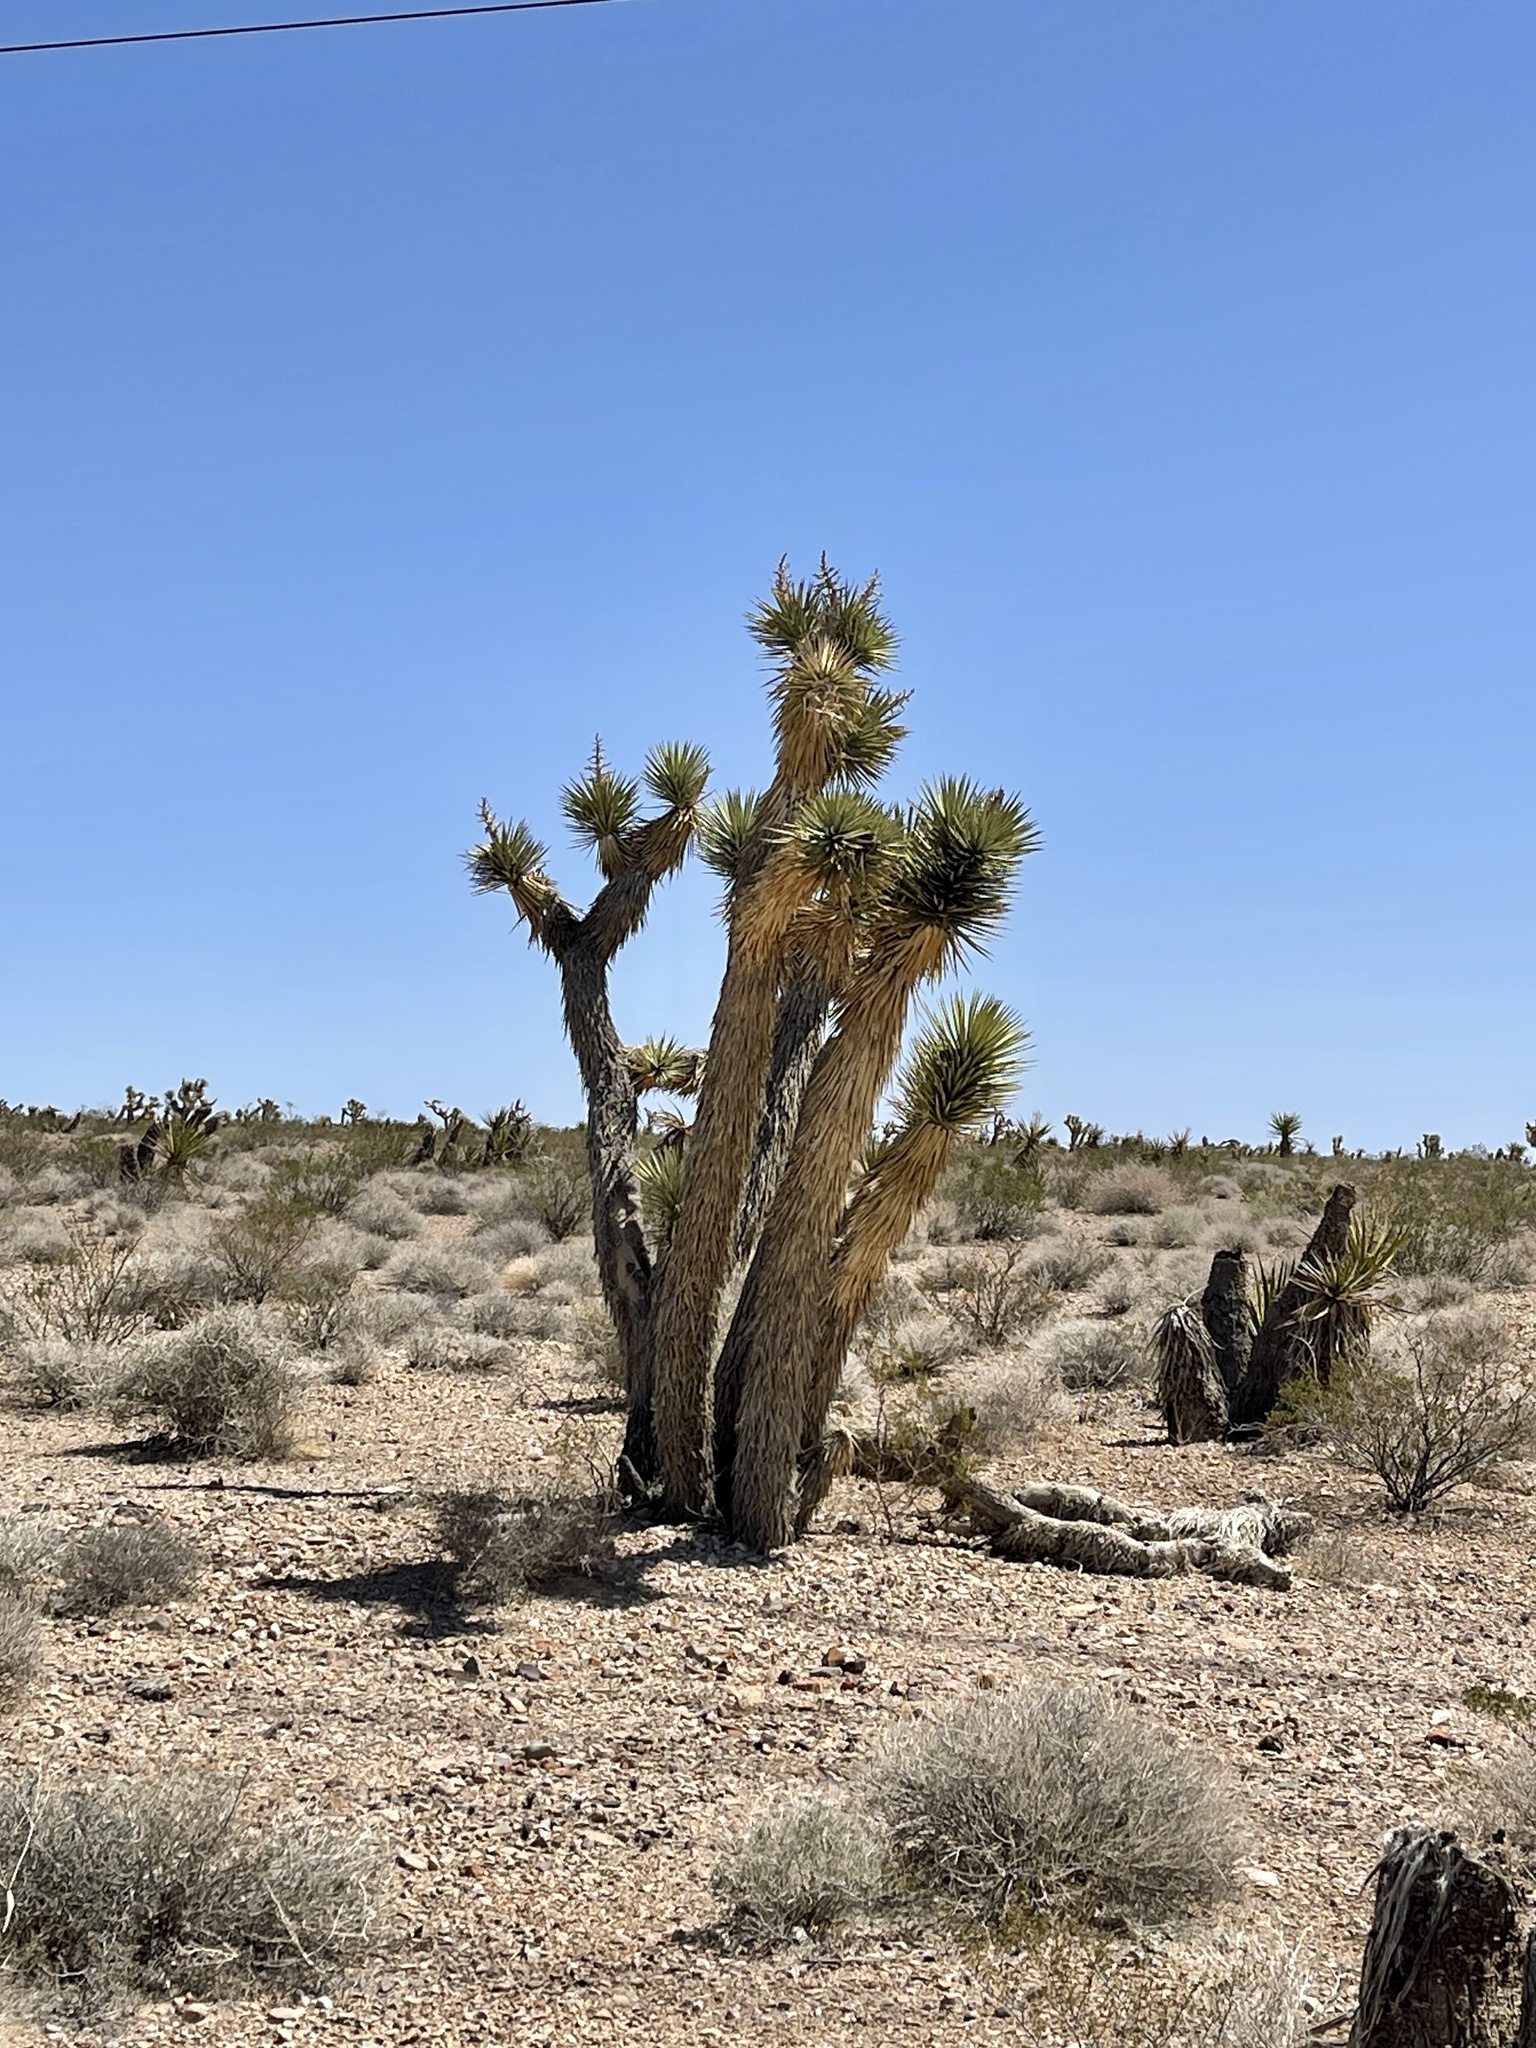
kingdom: Plantae
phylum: Tracheophyta
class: Liliopsida
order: Asparagales
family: Asparagaceae
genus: Yucca
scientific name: Yucca brevifolia
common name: Joshua tree
